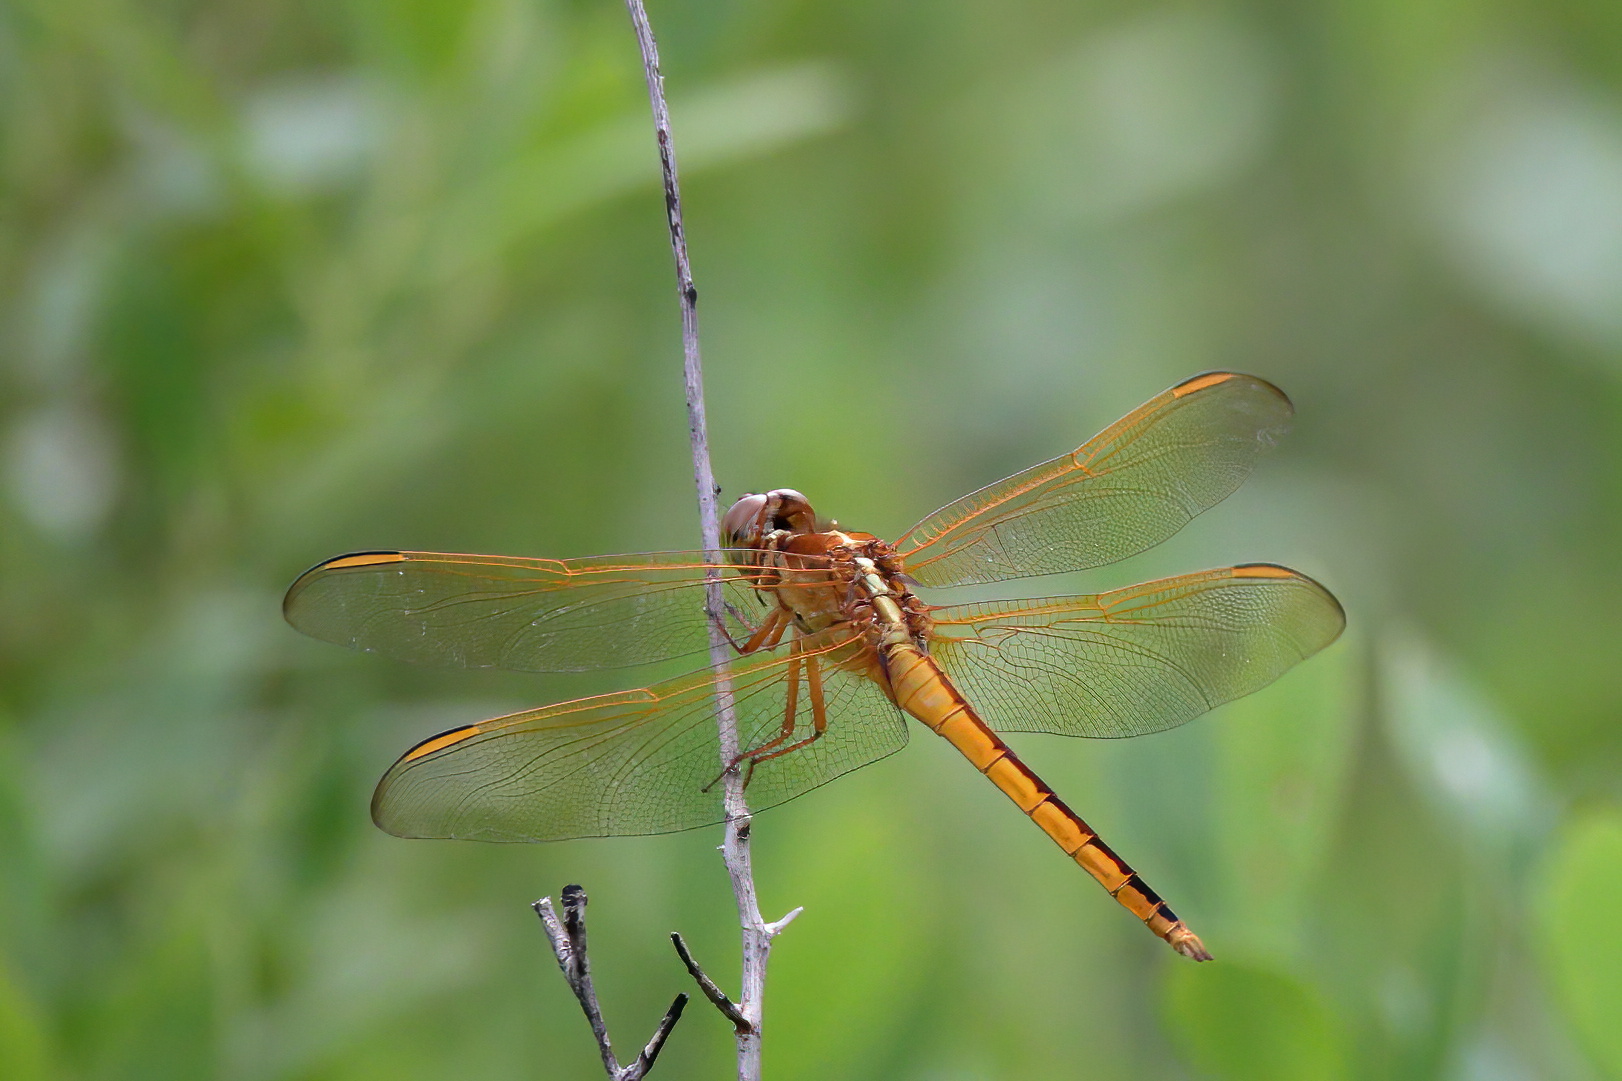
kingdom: Animalia
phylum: Arthropoda
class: Insecta
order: Odonata
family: Libellulidae
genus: Libellula
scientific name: Libellula needhami
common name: Needham's skimmer
